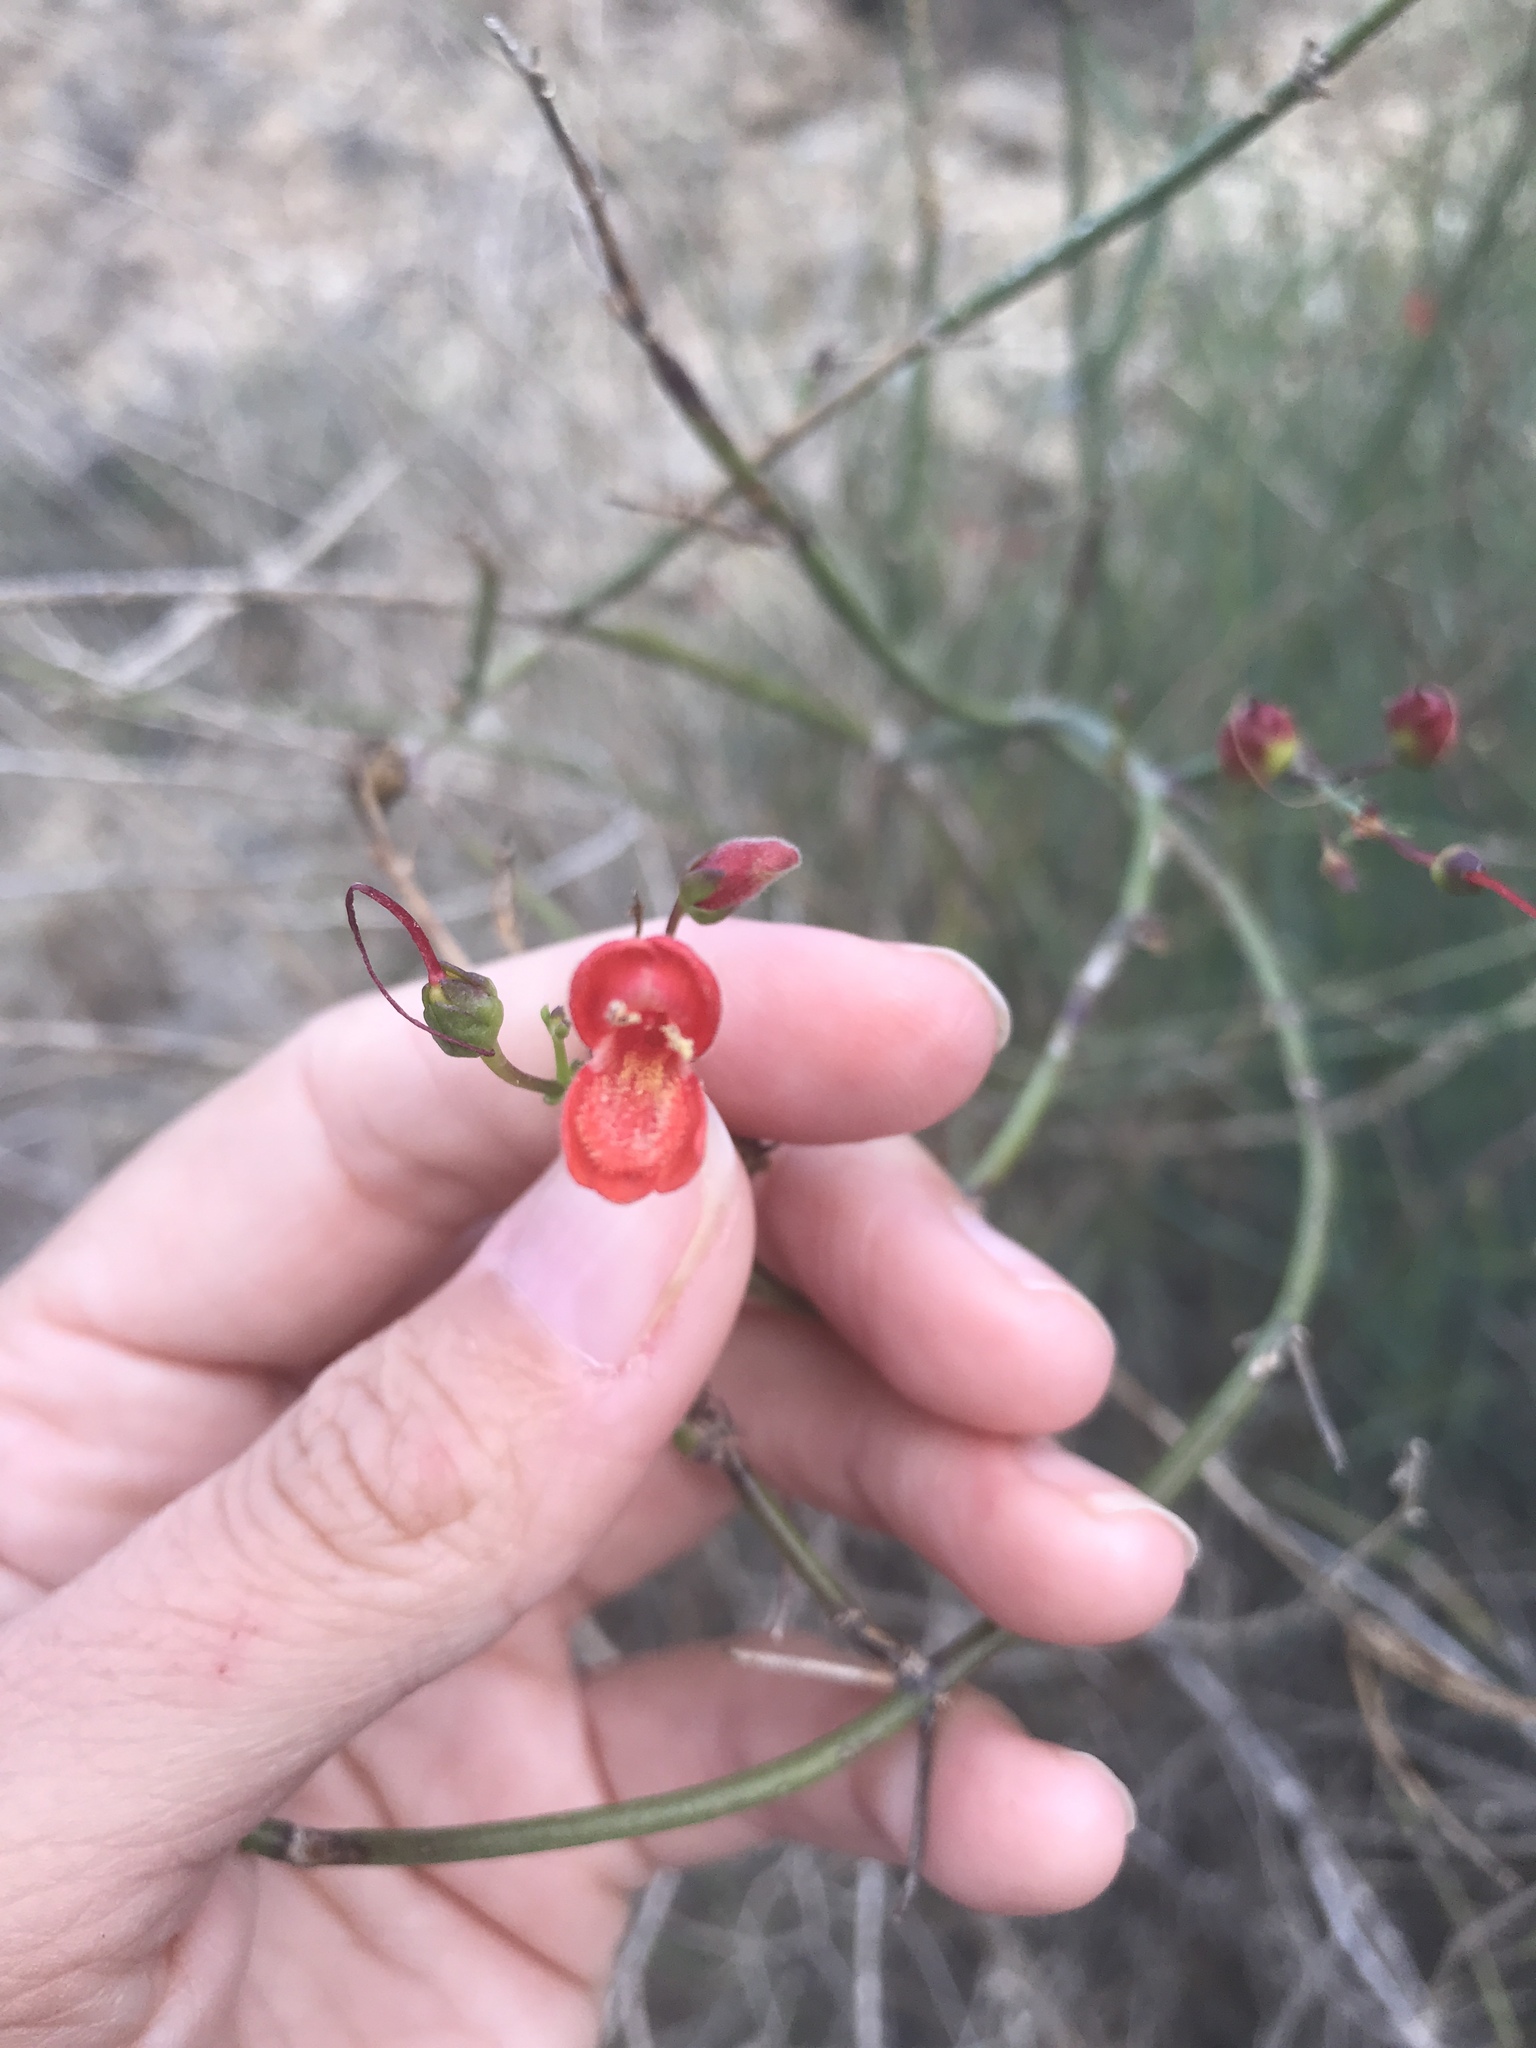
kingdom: Plantae
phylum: Tracheophyta
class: Magnoliopsida
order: Lamiales
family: Plantaginaceae
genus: Gambelia
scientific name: Gambelia juncea
